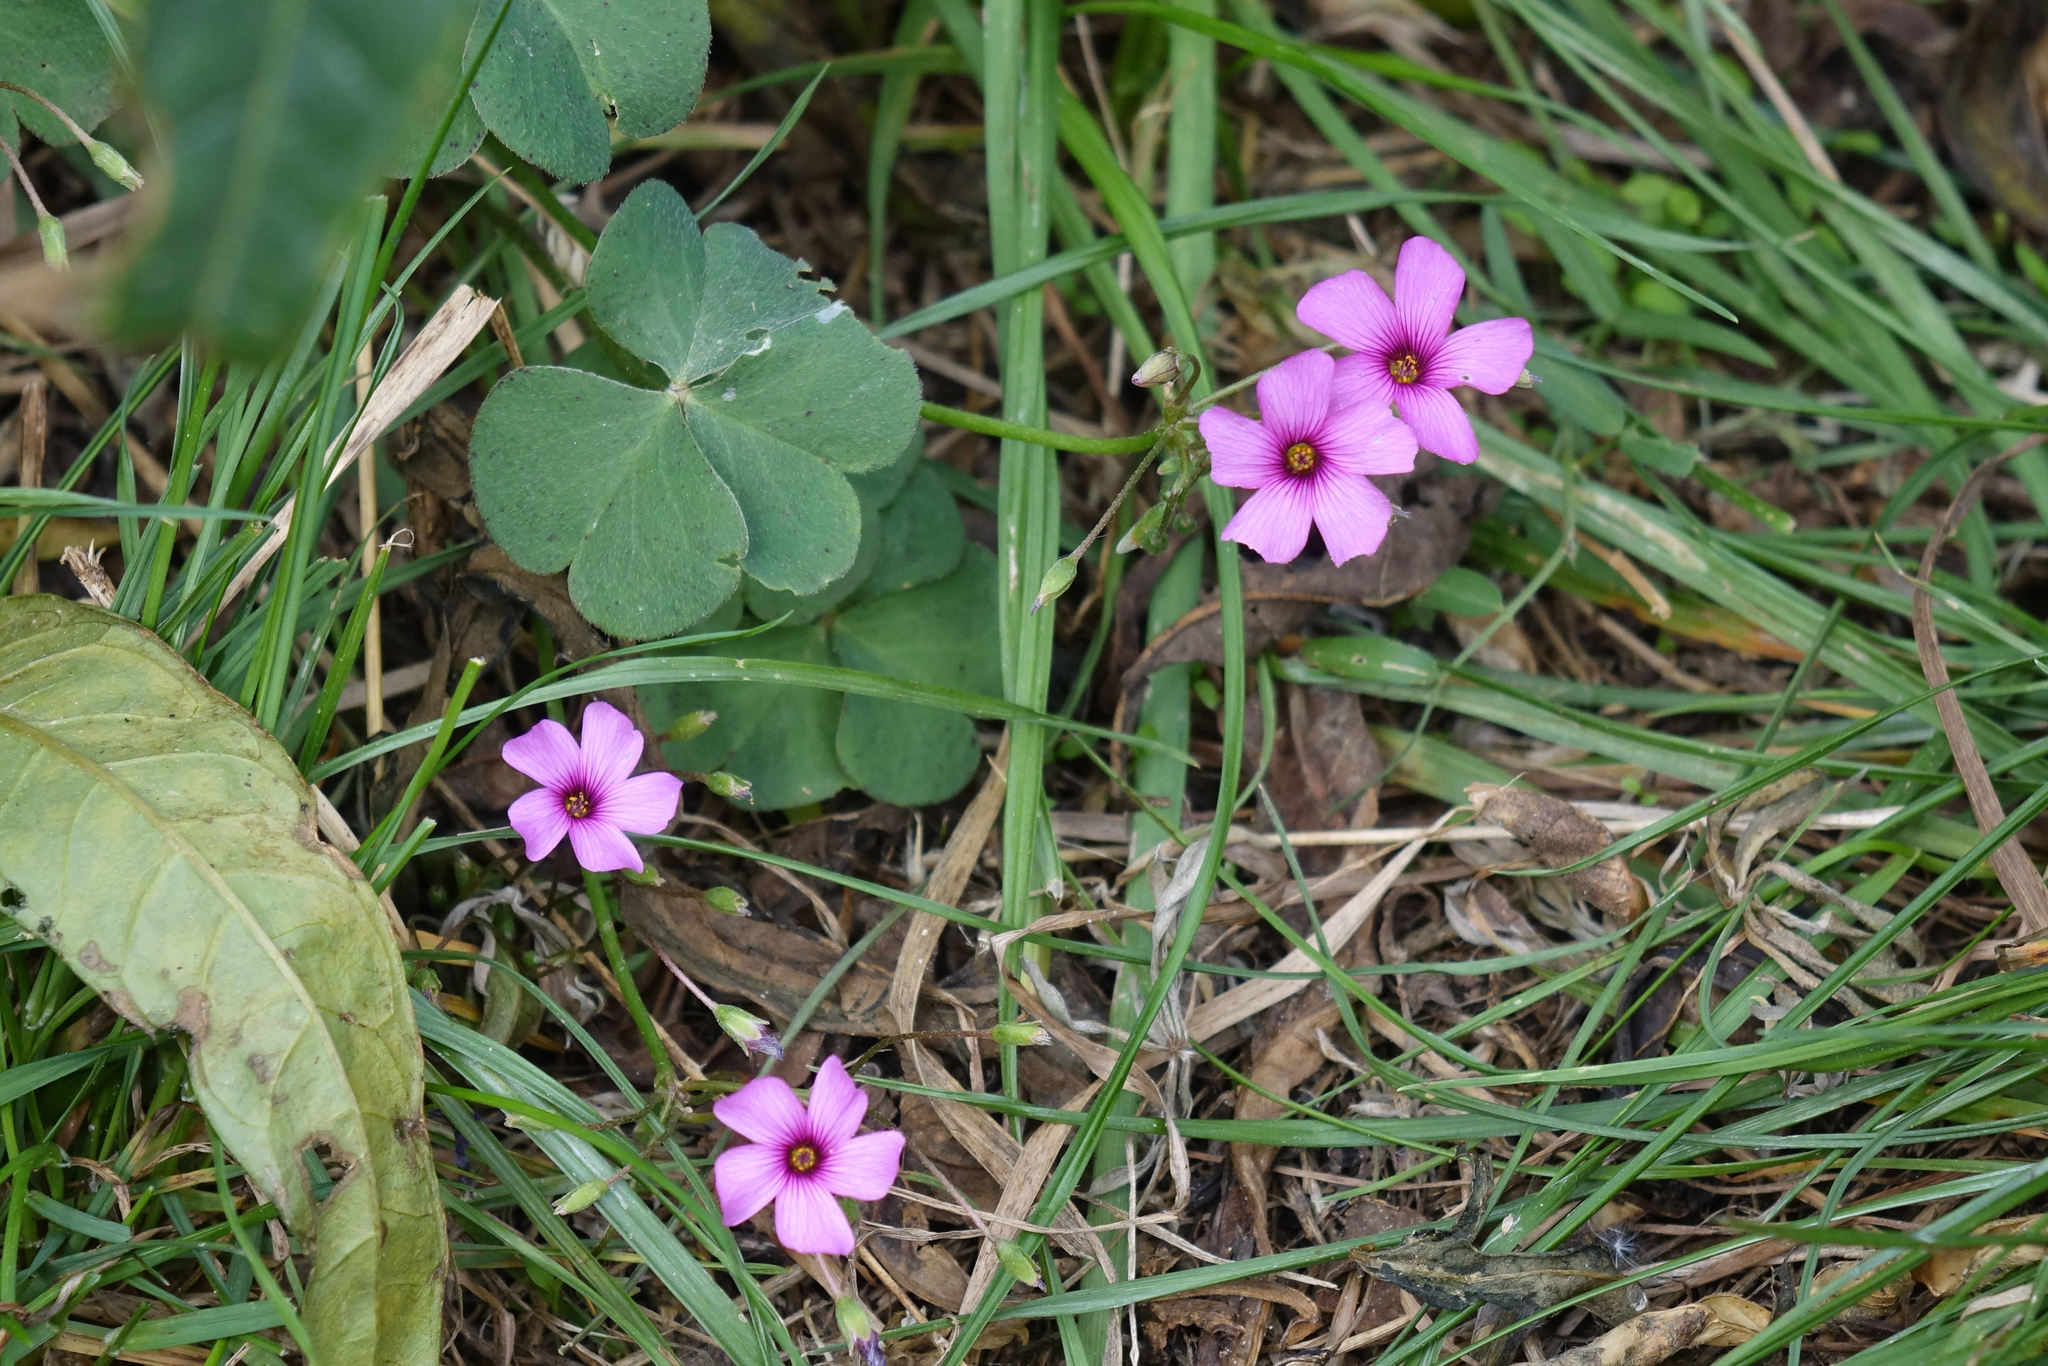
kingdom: Plantae
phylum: Tracheophyta
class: Magnoliopsida
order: Oxalidales
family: Oxalidaceae
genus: Oxalis
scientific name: Oxalis articulata
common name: Pink-sorrel
